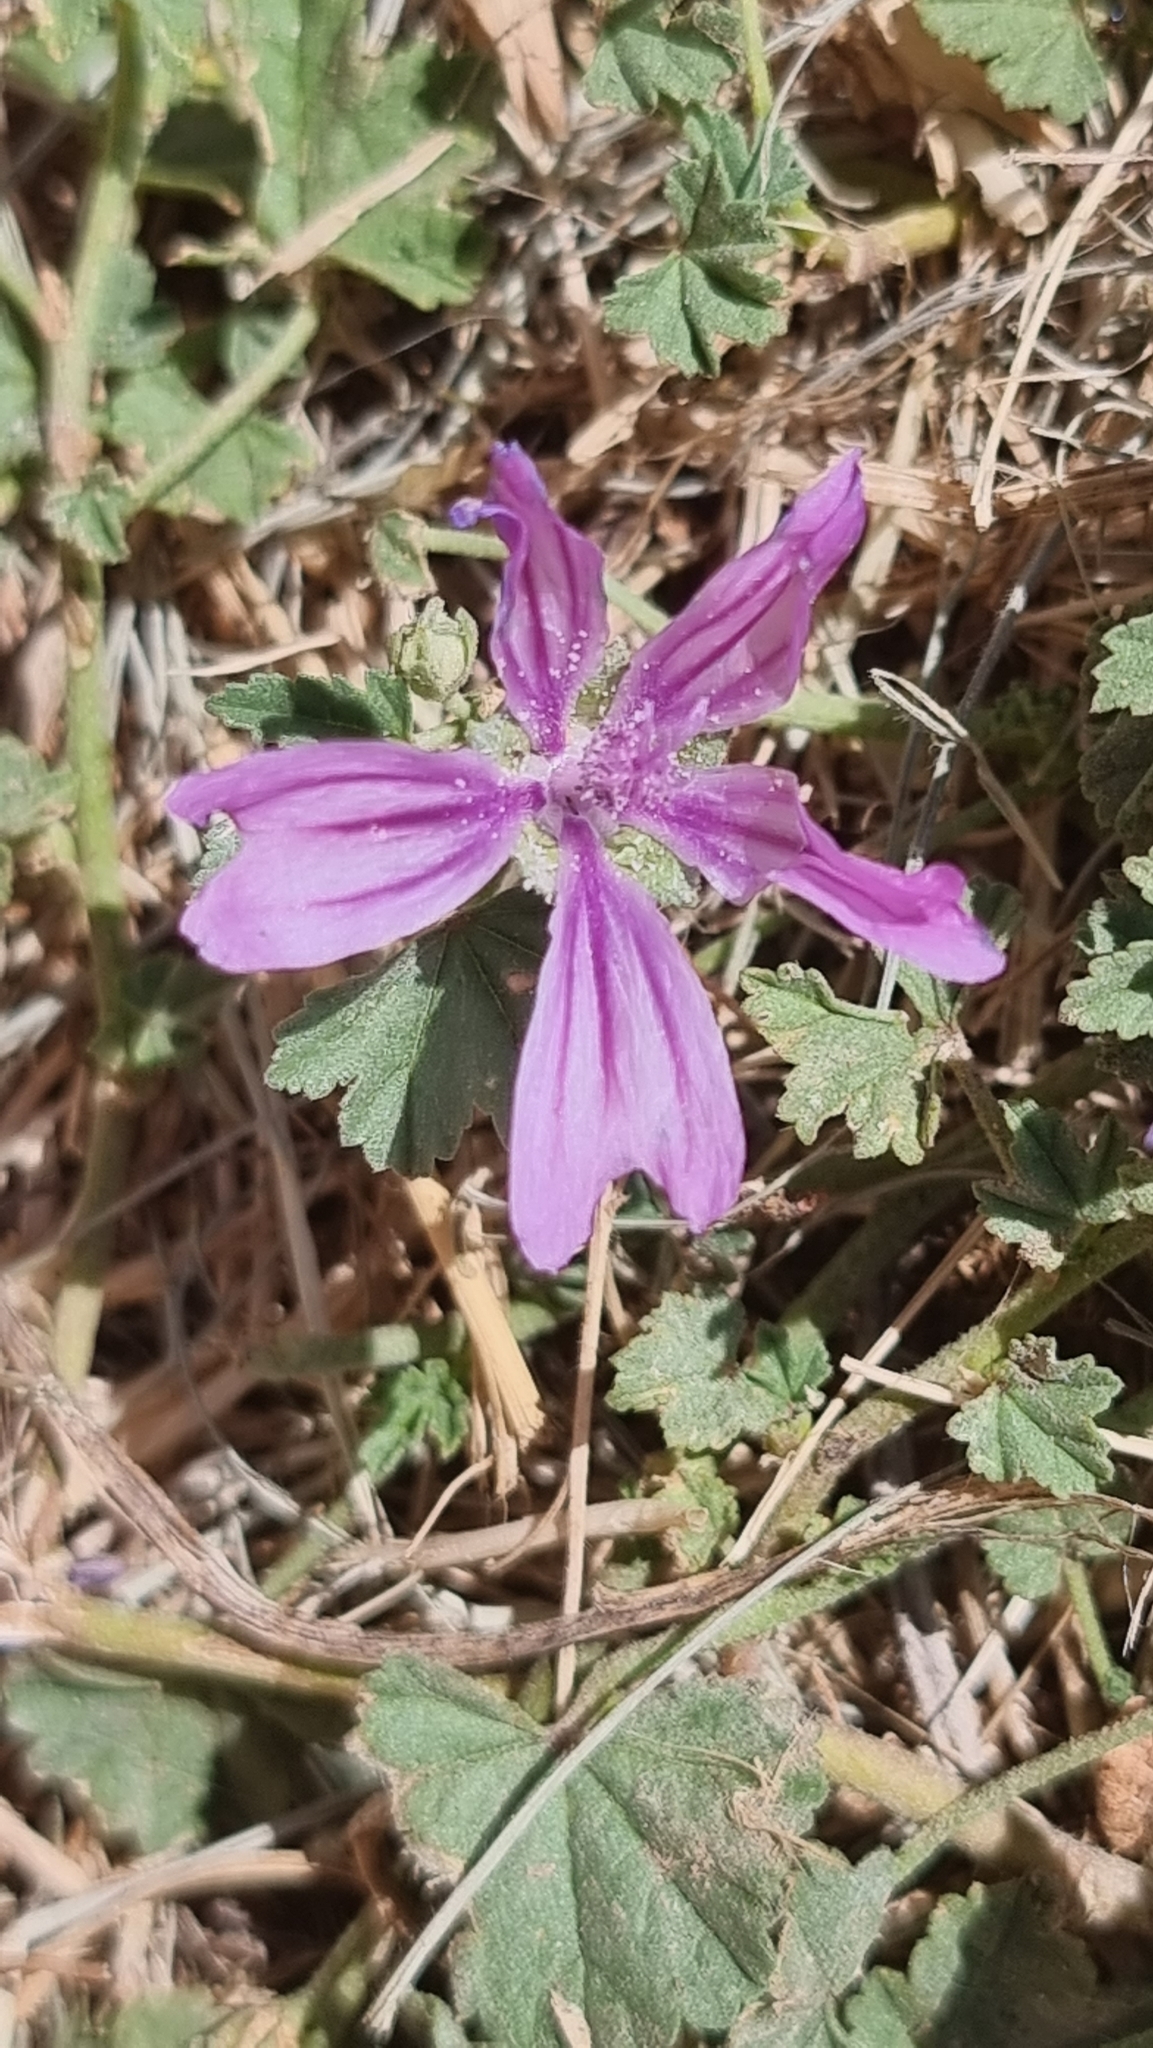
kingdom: Plantae
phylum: Tracheophyta
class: Magnoliopsida
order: Malvales
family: Malvaceae
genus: Malva
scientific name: Malva sylvestris
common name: Common mallow
